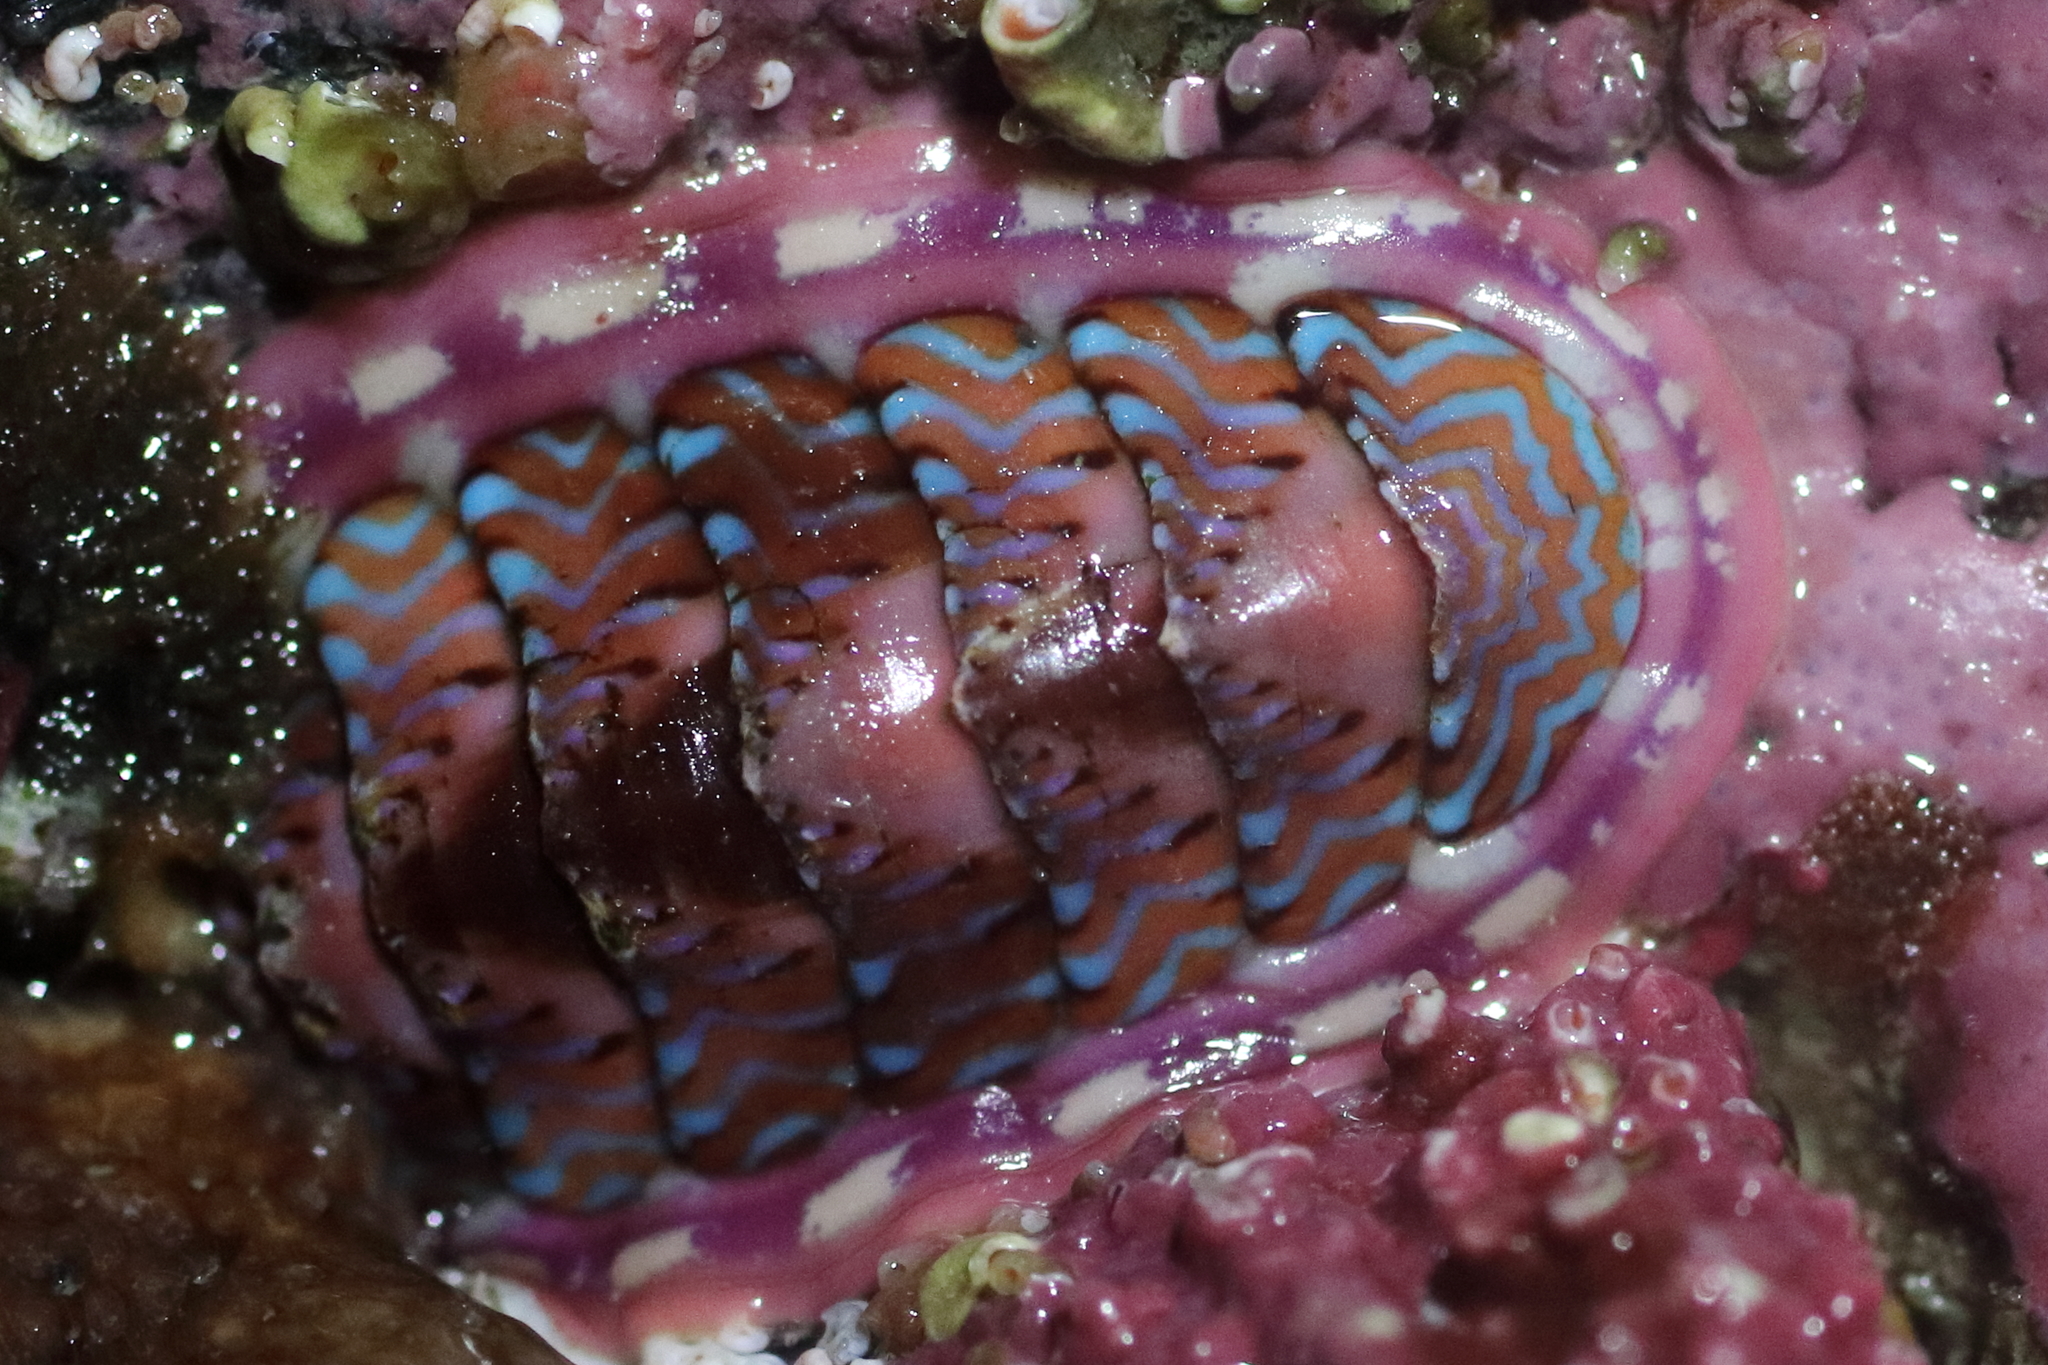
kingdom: Animalia
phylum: Mollusca
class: Polyplacophora
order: Chitonida
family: Tonicellidae
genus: Tonicella
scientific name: Tonicella undocaerulea
